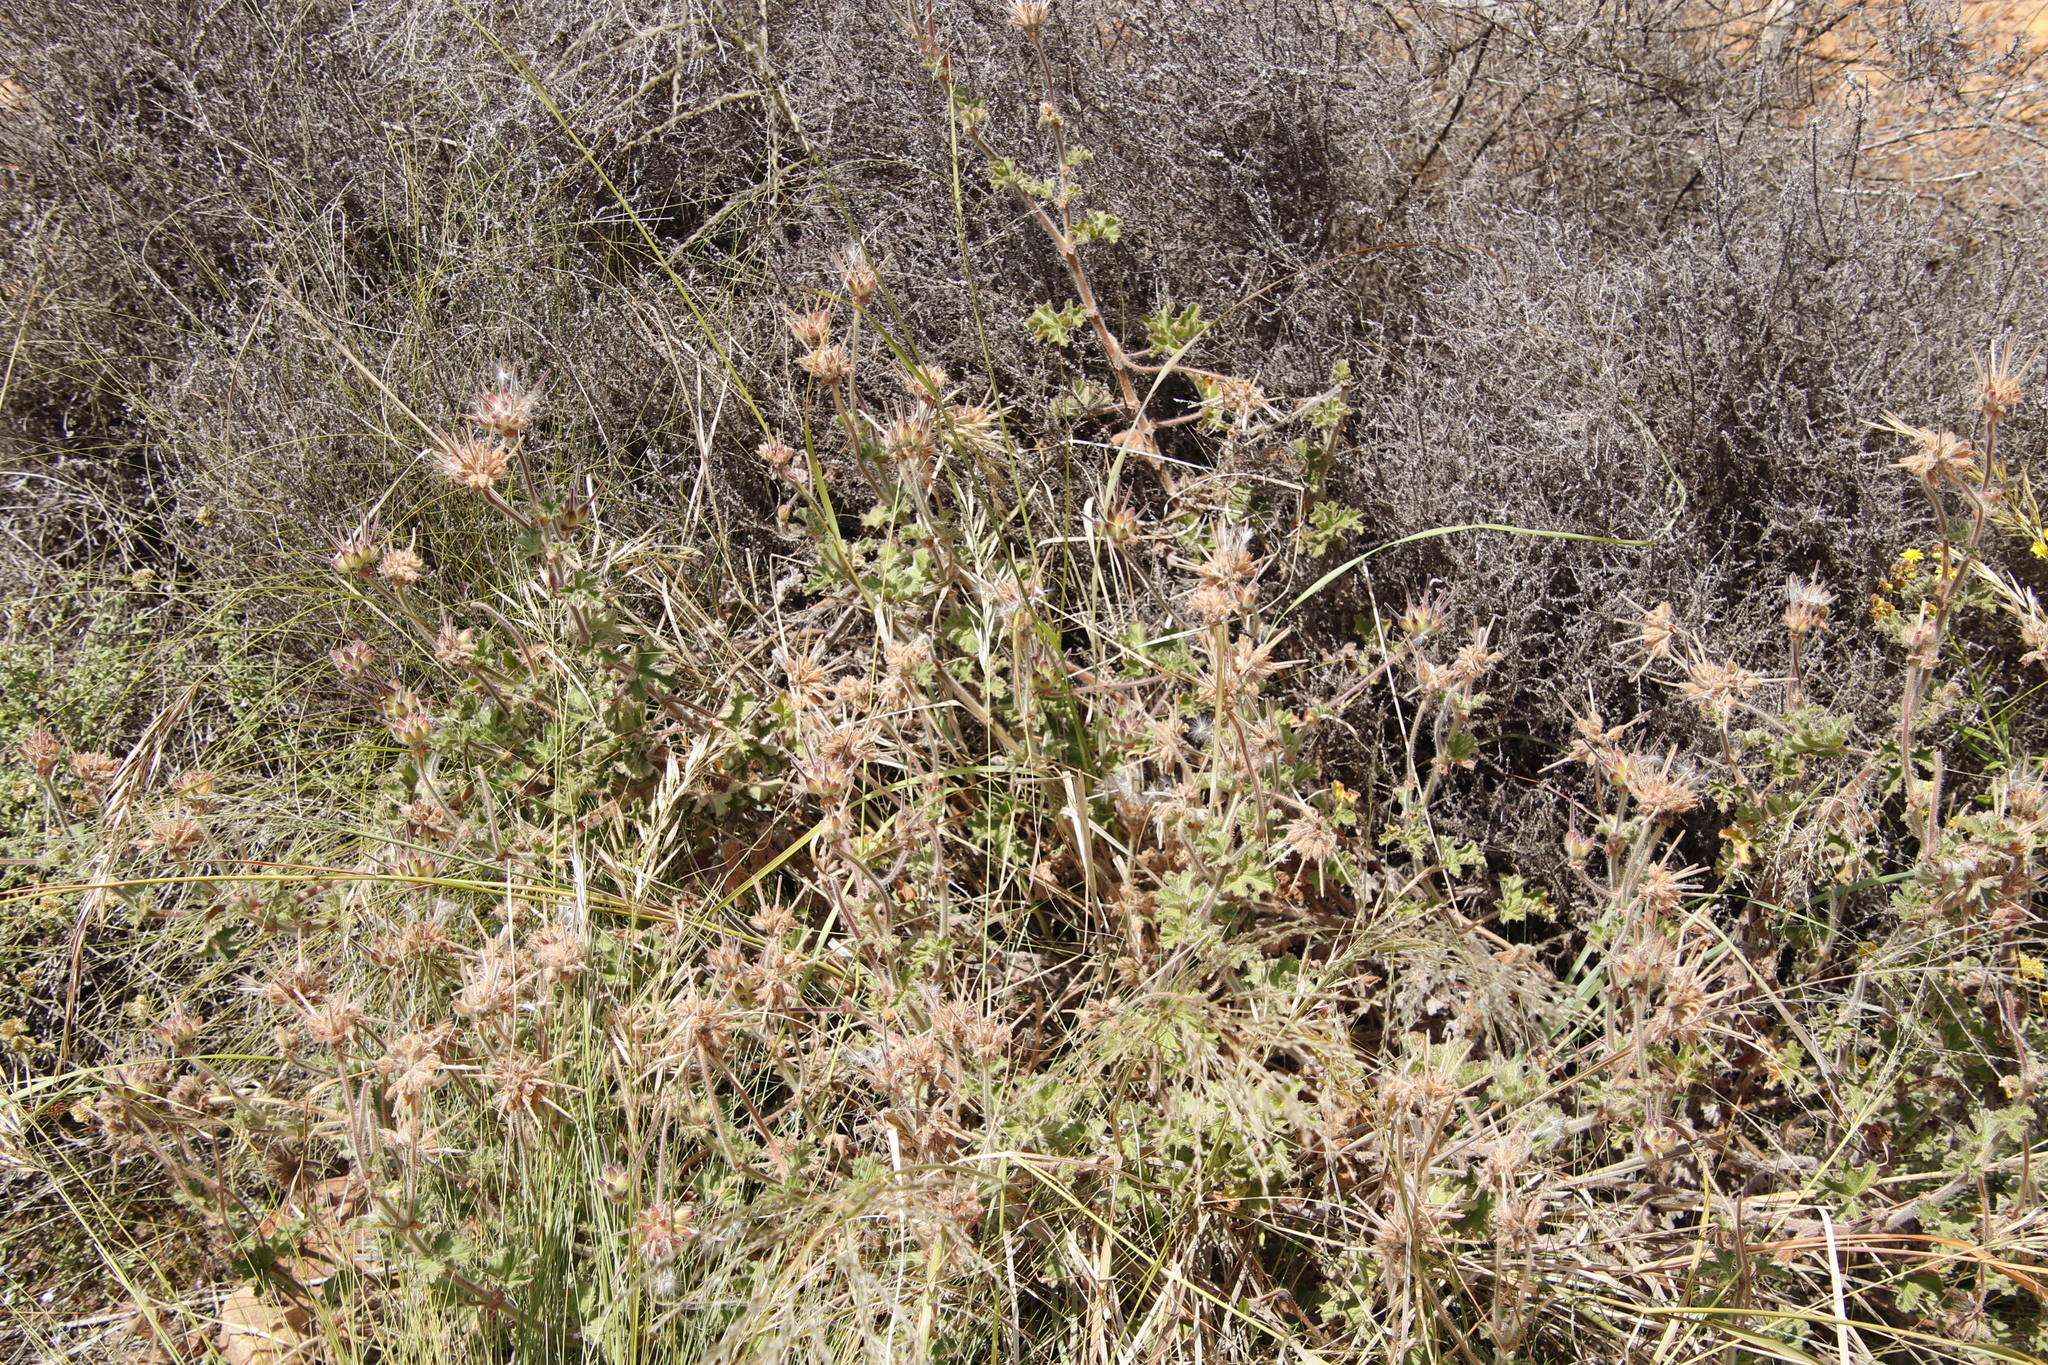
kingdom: Plantae
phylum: Tracheophyta
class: Magnoliopsida
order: Geraniales
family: Geraniaceae
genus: Pelargonium
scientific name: Pelargonium capitatum
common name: Rose scented geranium
